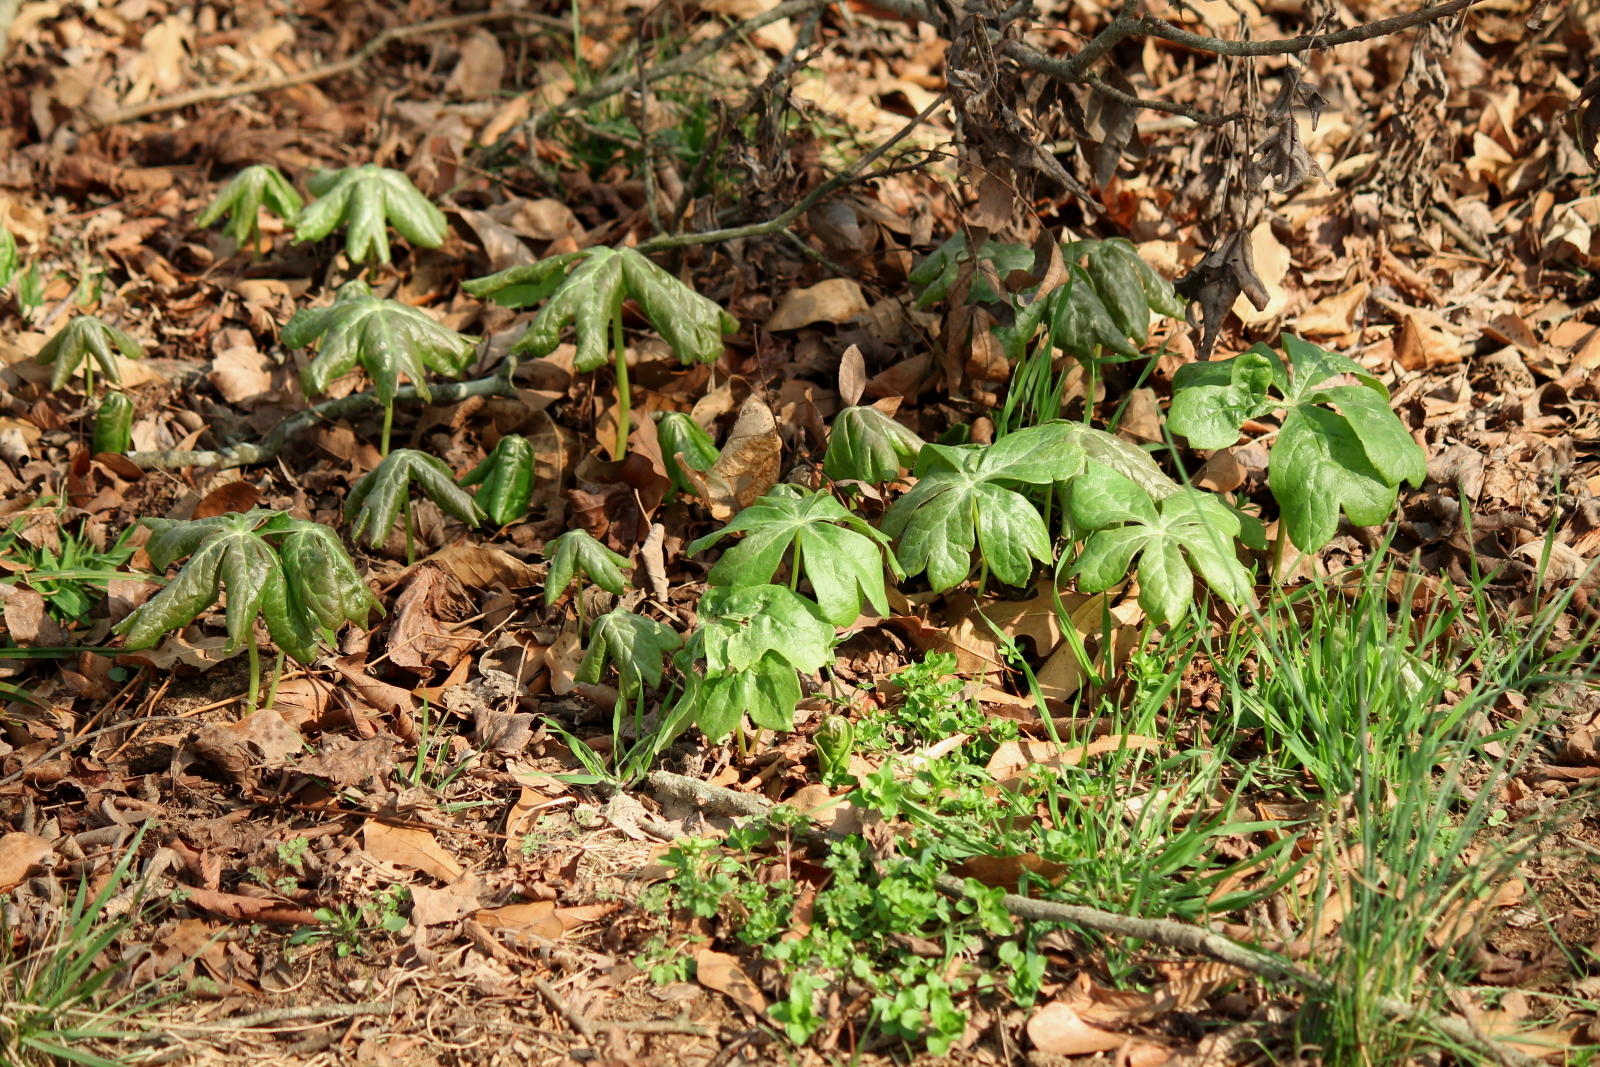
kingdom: Plantae
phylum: Tracheophyta
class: Magnoliopsida
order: Ranunculales
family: Berberidaceae
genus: Podophyllum
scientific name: Podophyllum peltatum
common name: Wild mandrake
